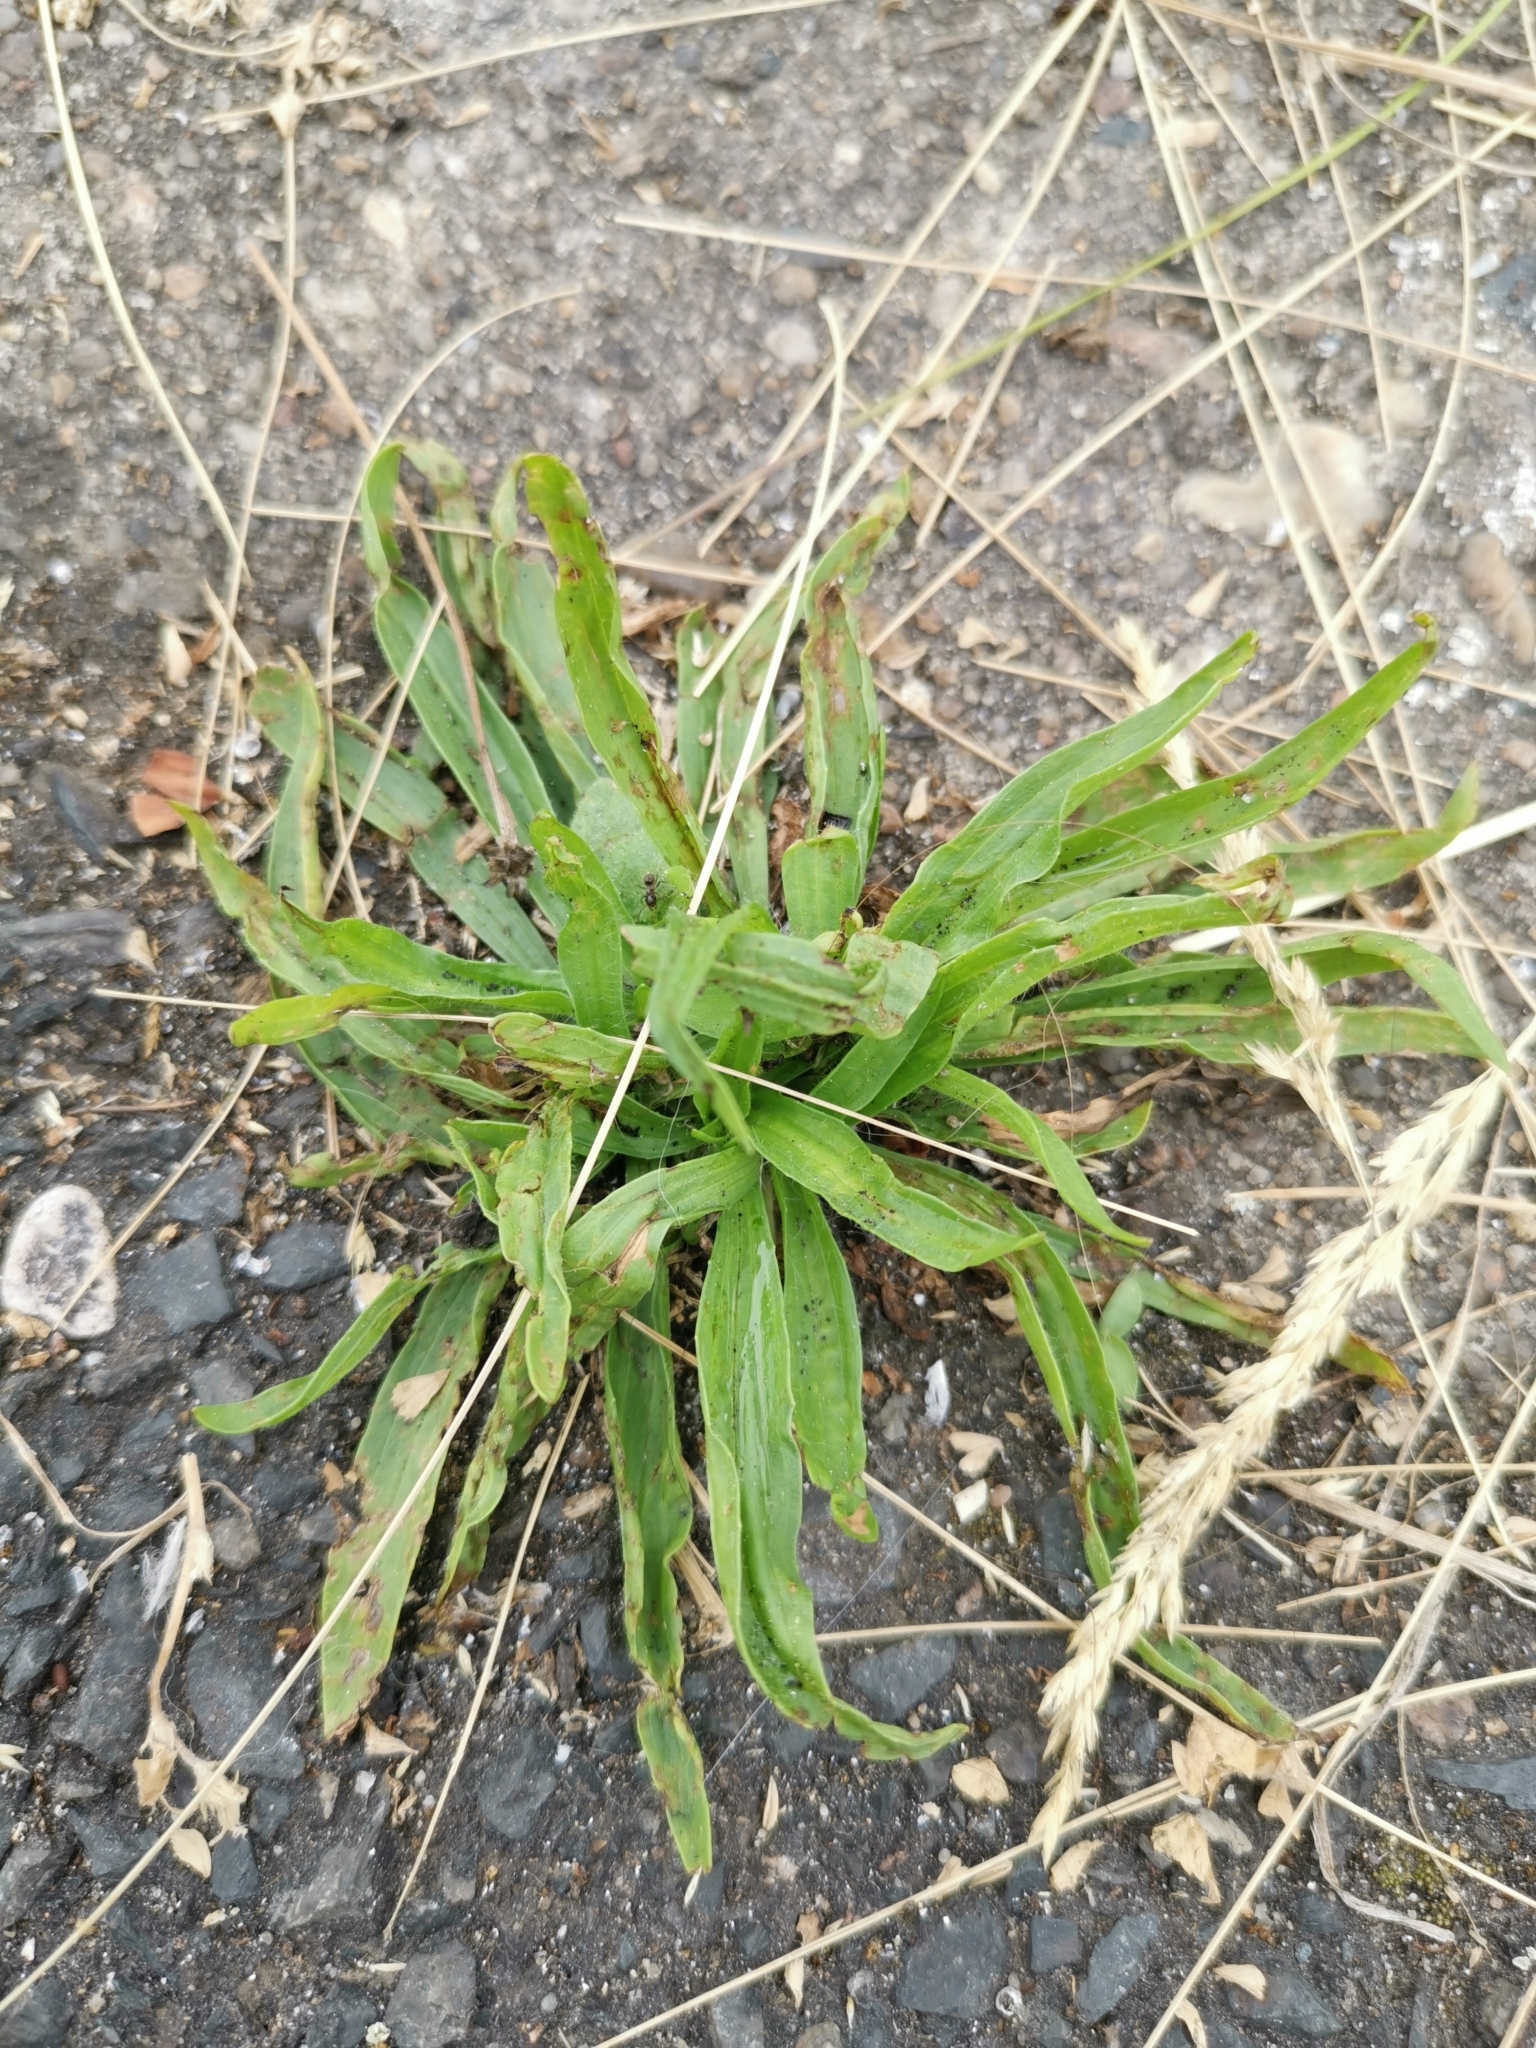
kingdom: Plantae
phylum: Tracheophyta
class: Magnoliopsida
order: Lamiales
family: Plantaginaceae
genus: Plantago
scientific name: Plantago lanceolata
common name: Ribwort plantain
